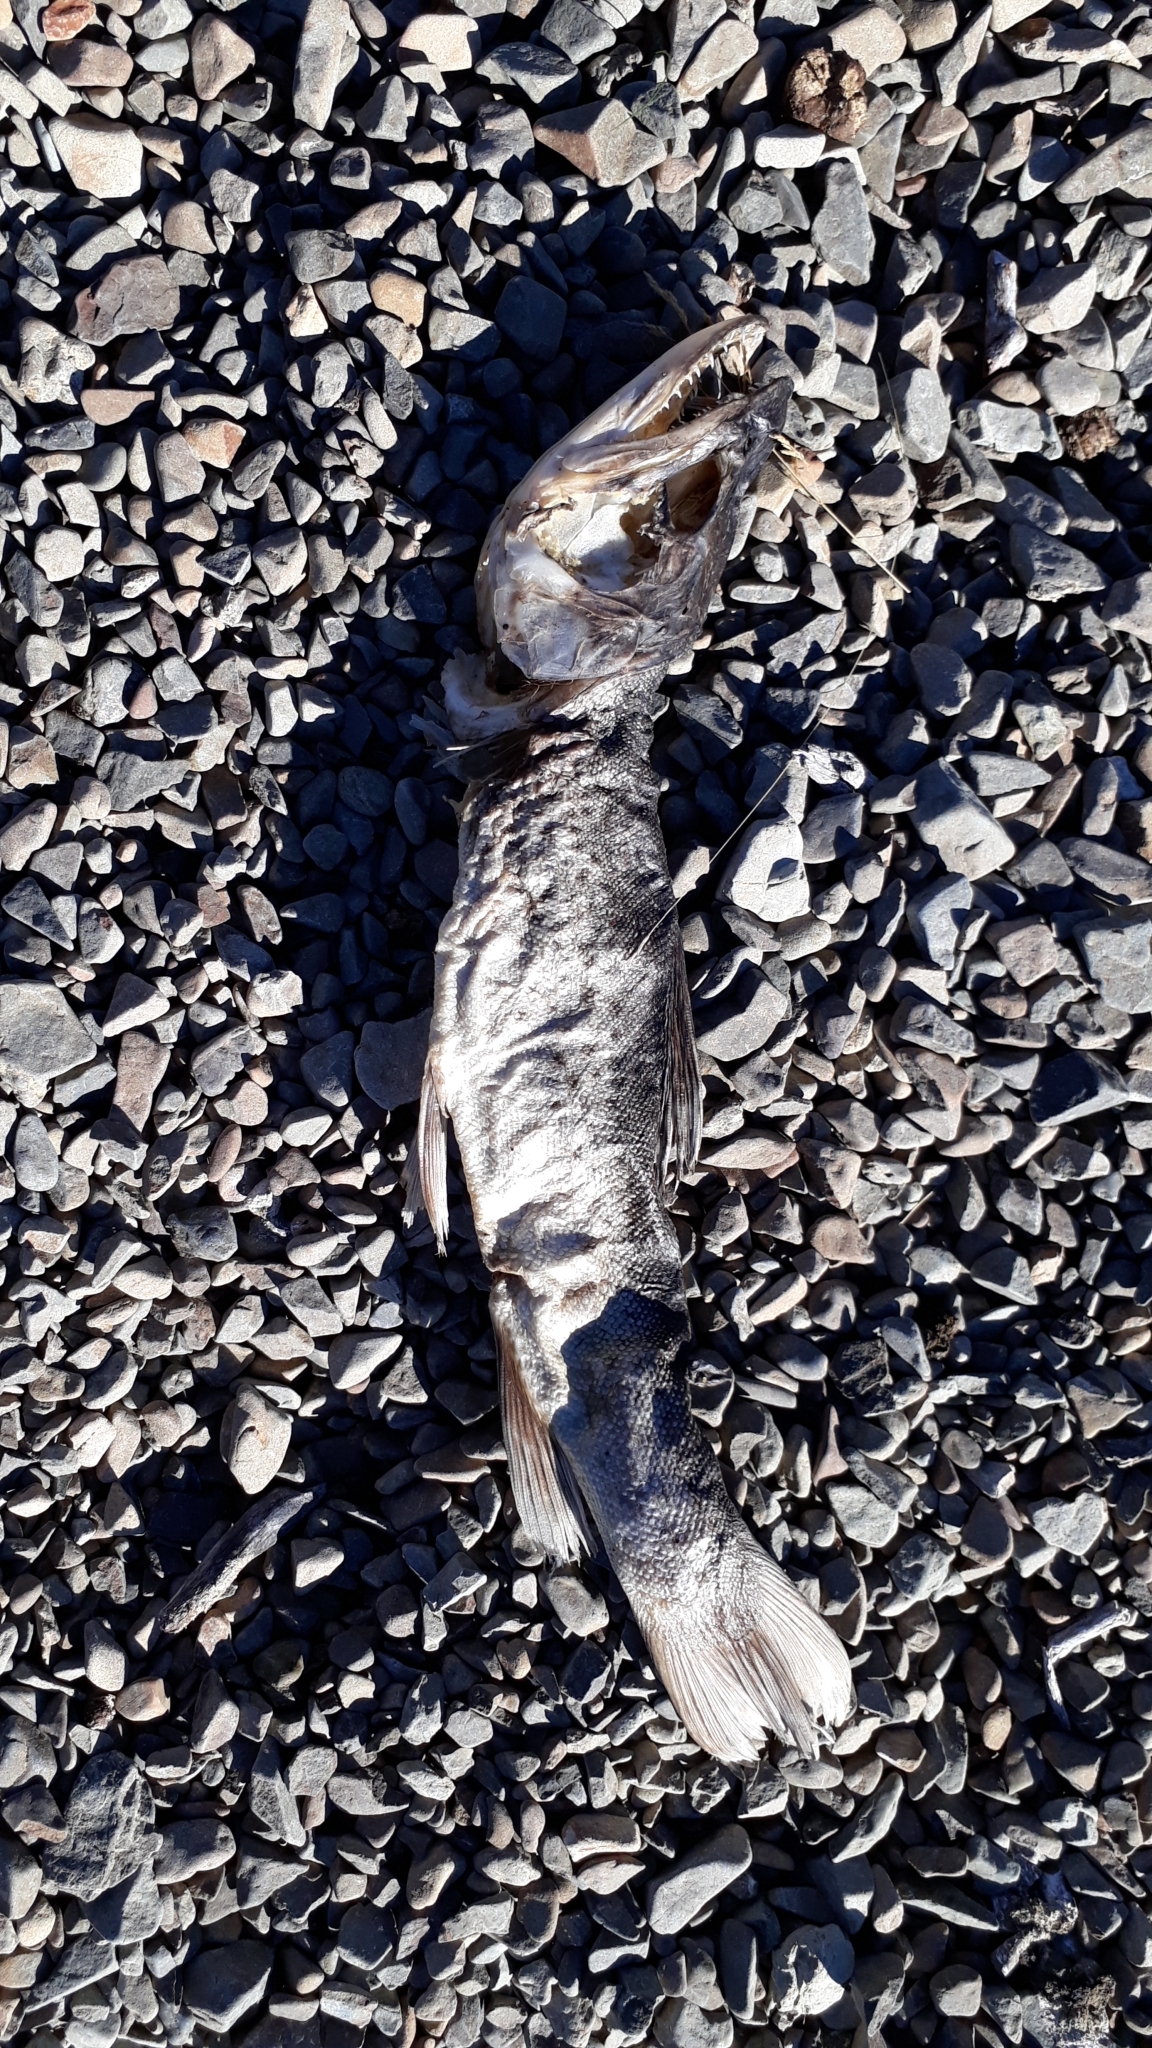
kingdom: Animalia
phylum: Chordata
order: Salmoniformes
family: Salmonidae
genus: Salmo
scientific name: Salmo trutta
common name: Brown trout
